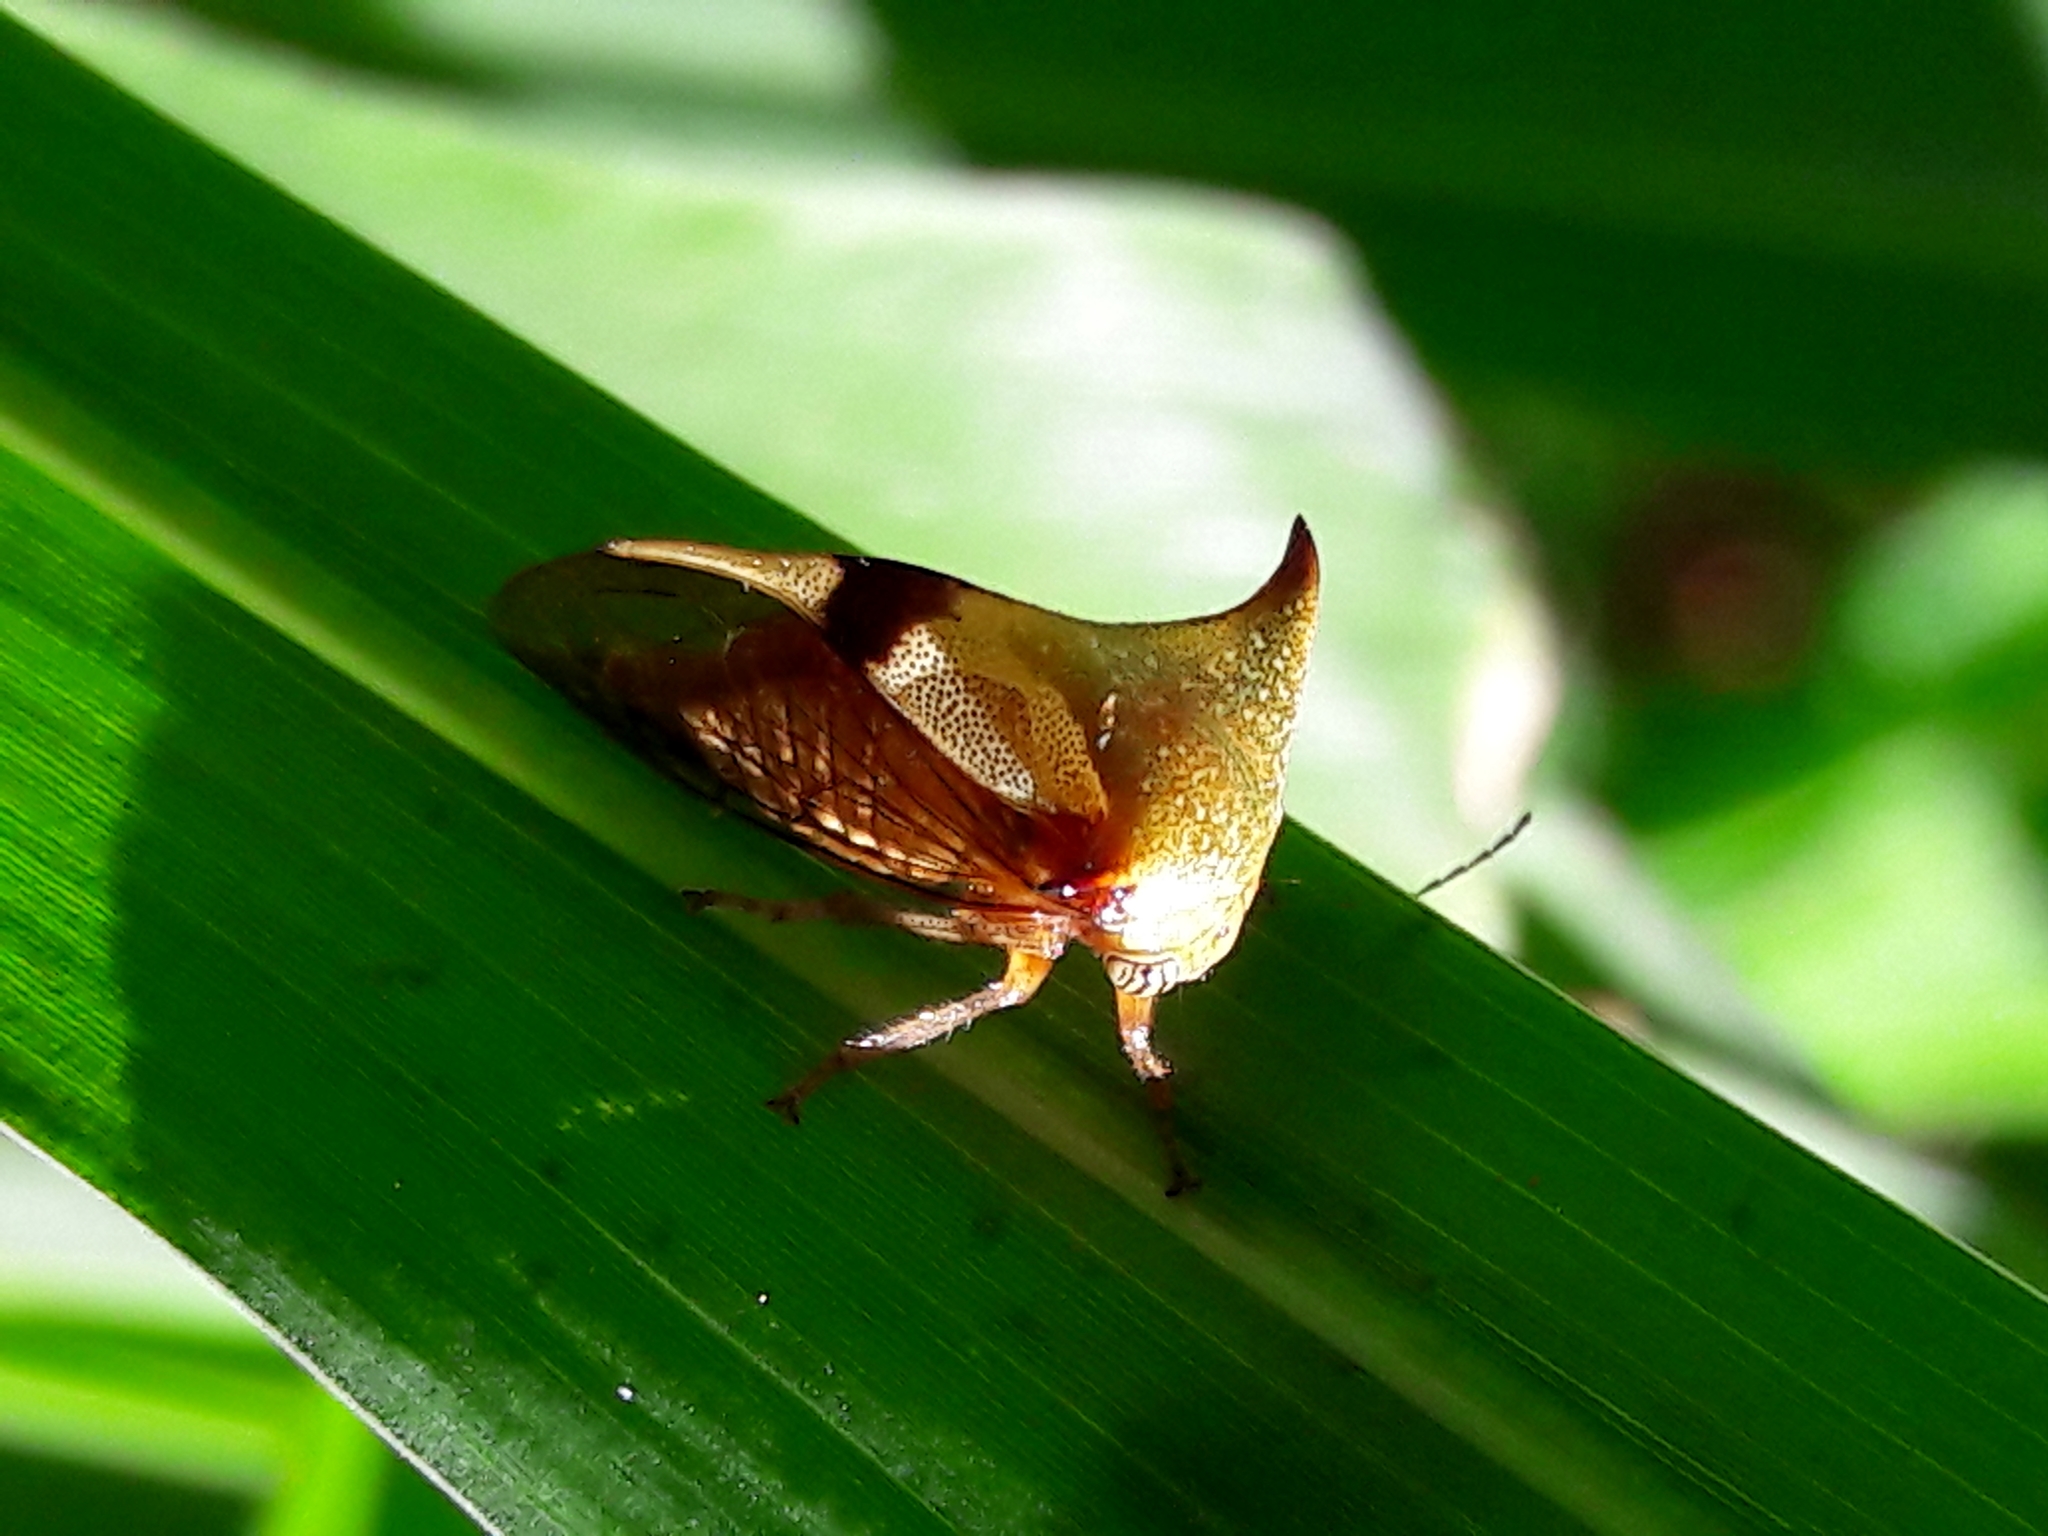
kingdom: Animalia
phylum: Arthropoda
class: Insecta
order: Hemiptera
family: Membracidae
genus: Ceresa
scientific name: Ceresa ustulata
